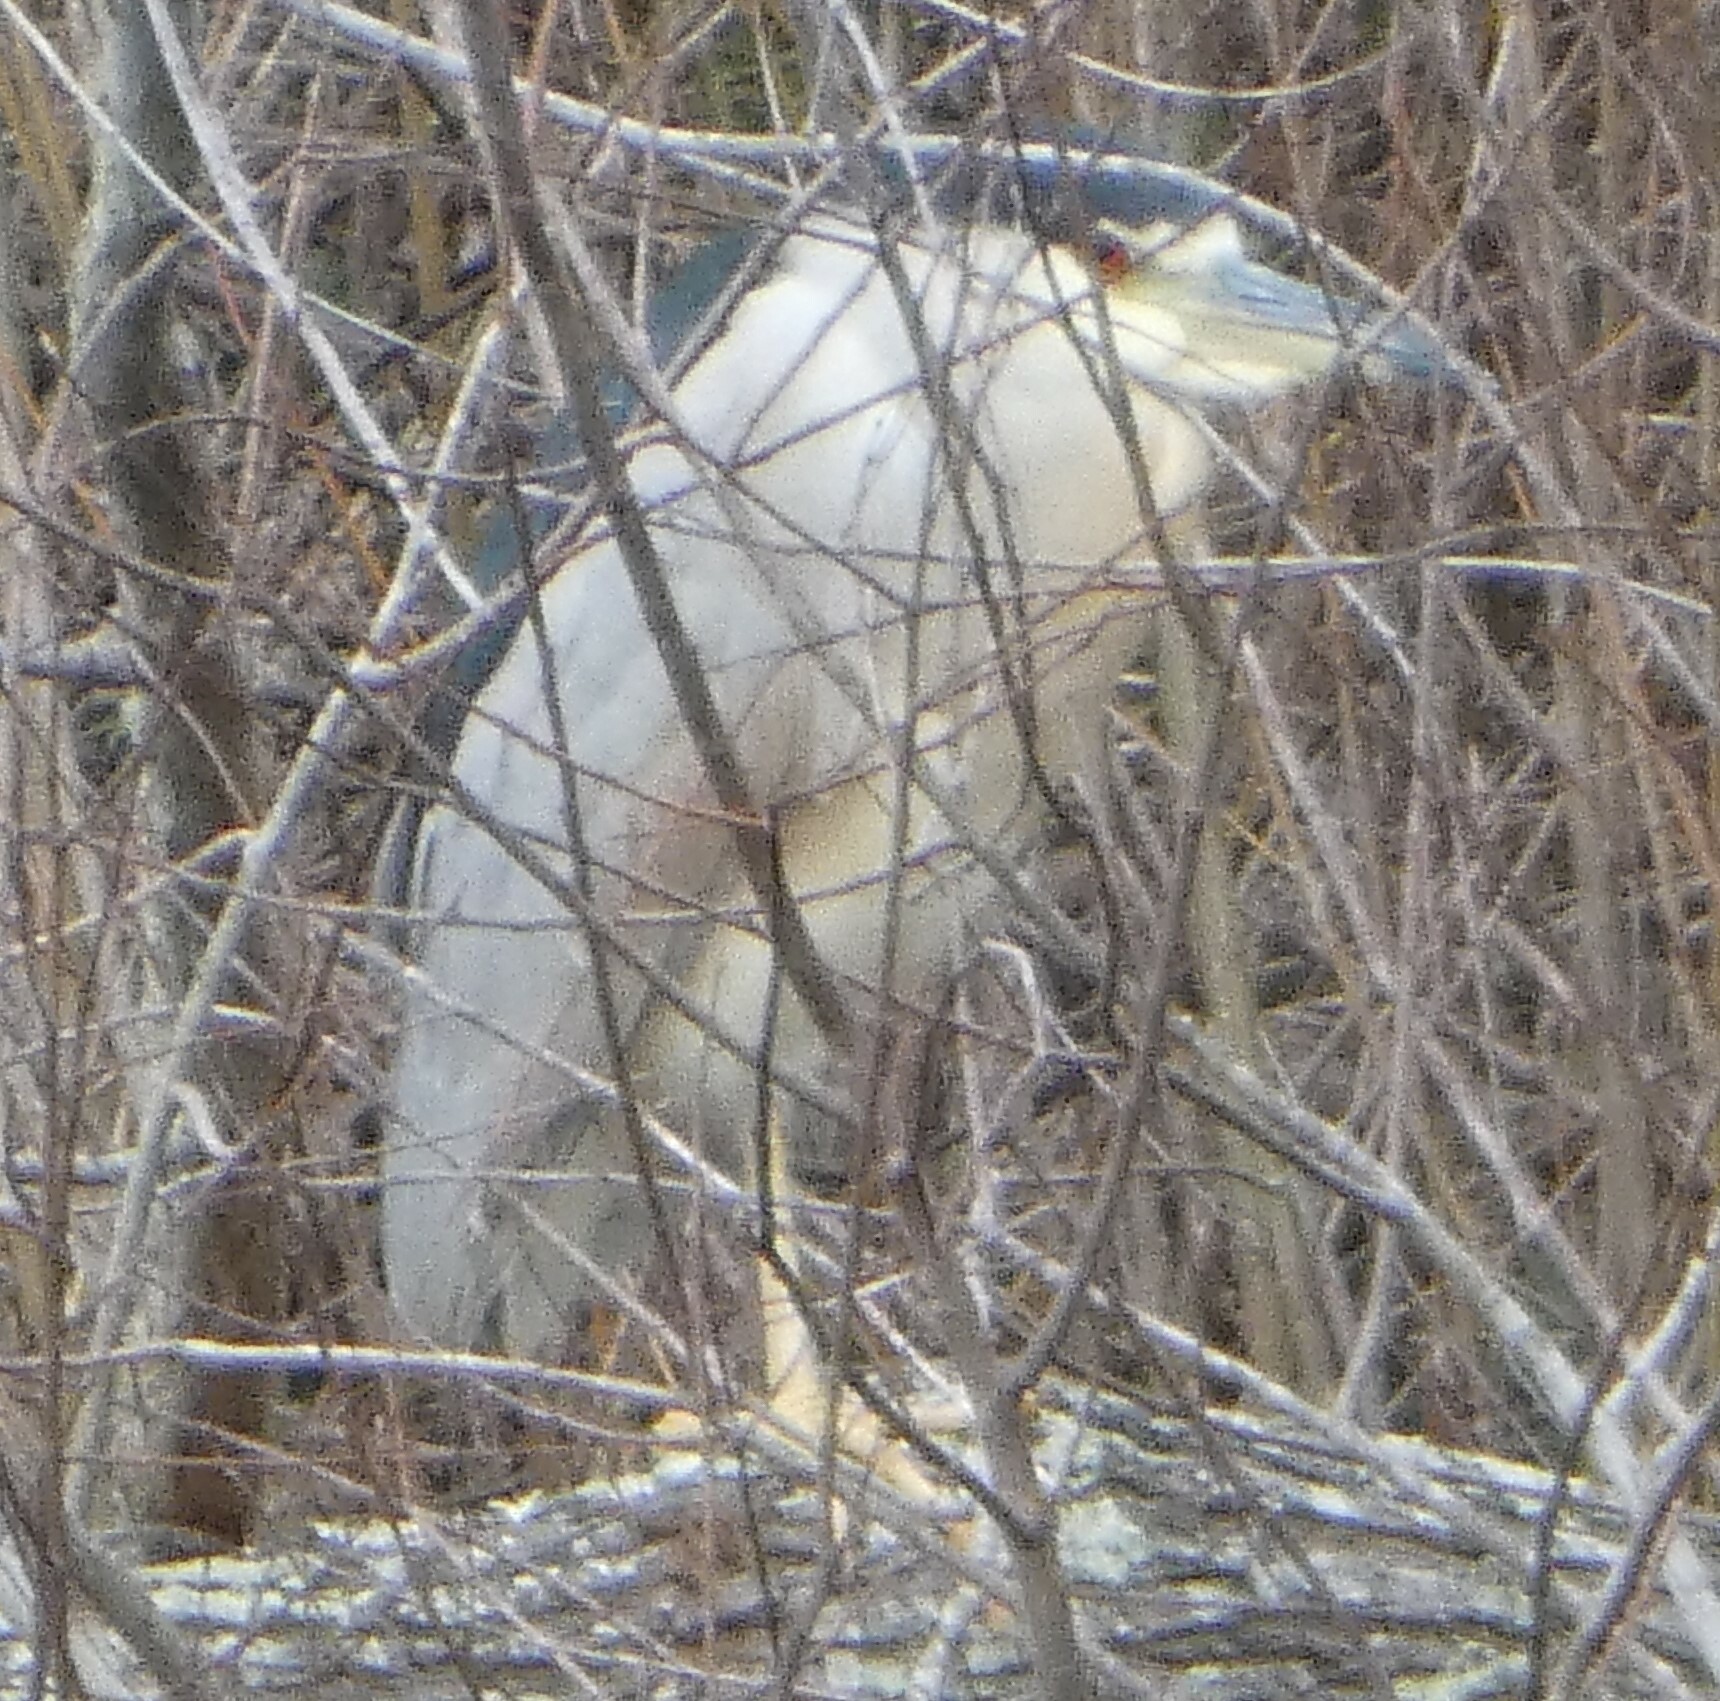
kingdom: Animalia
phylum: Chordata
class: Aves
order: Pelecaniformes
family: Ardeidae
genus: Nycticorax
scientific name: Nycticorax nycticorax
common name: Black-crowned night heron
